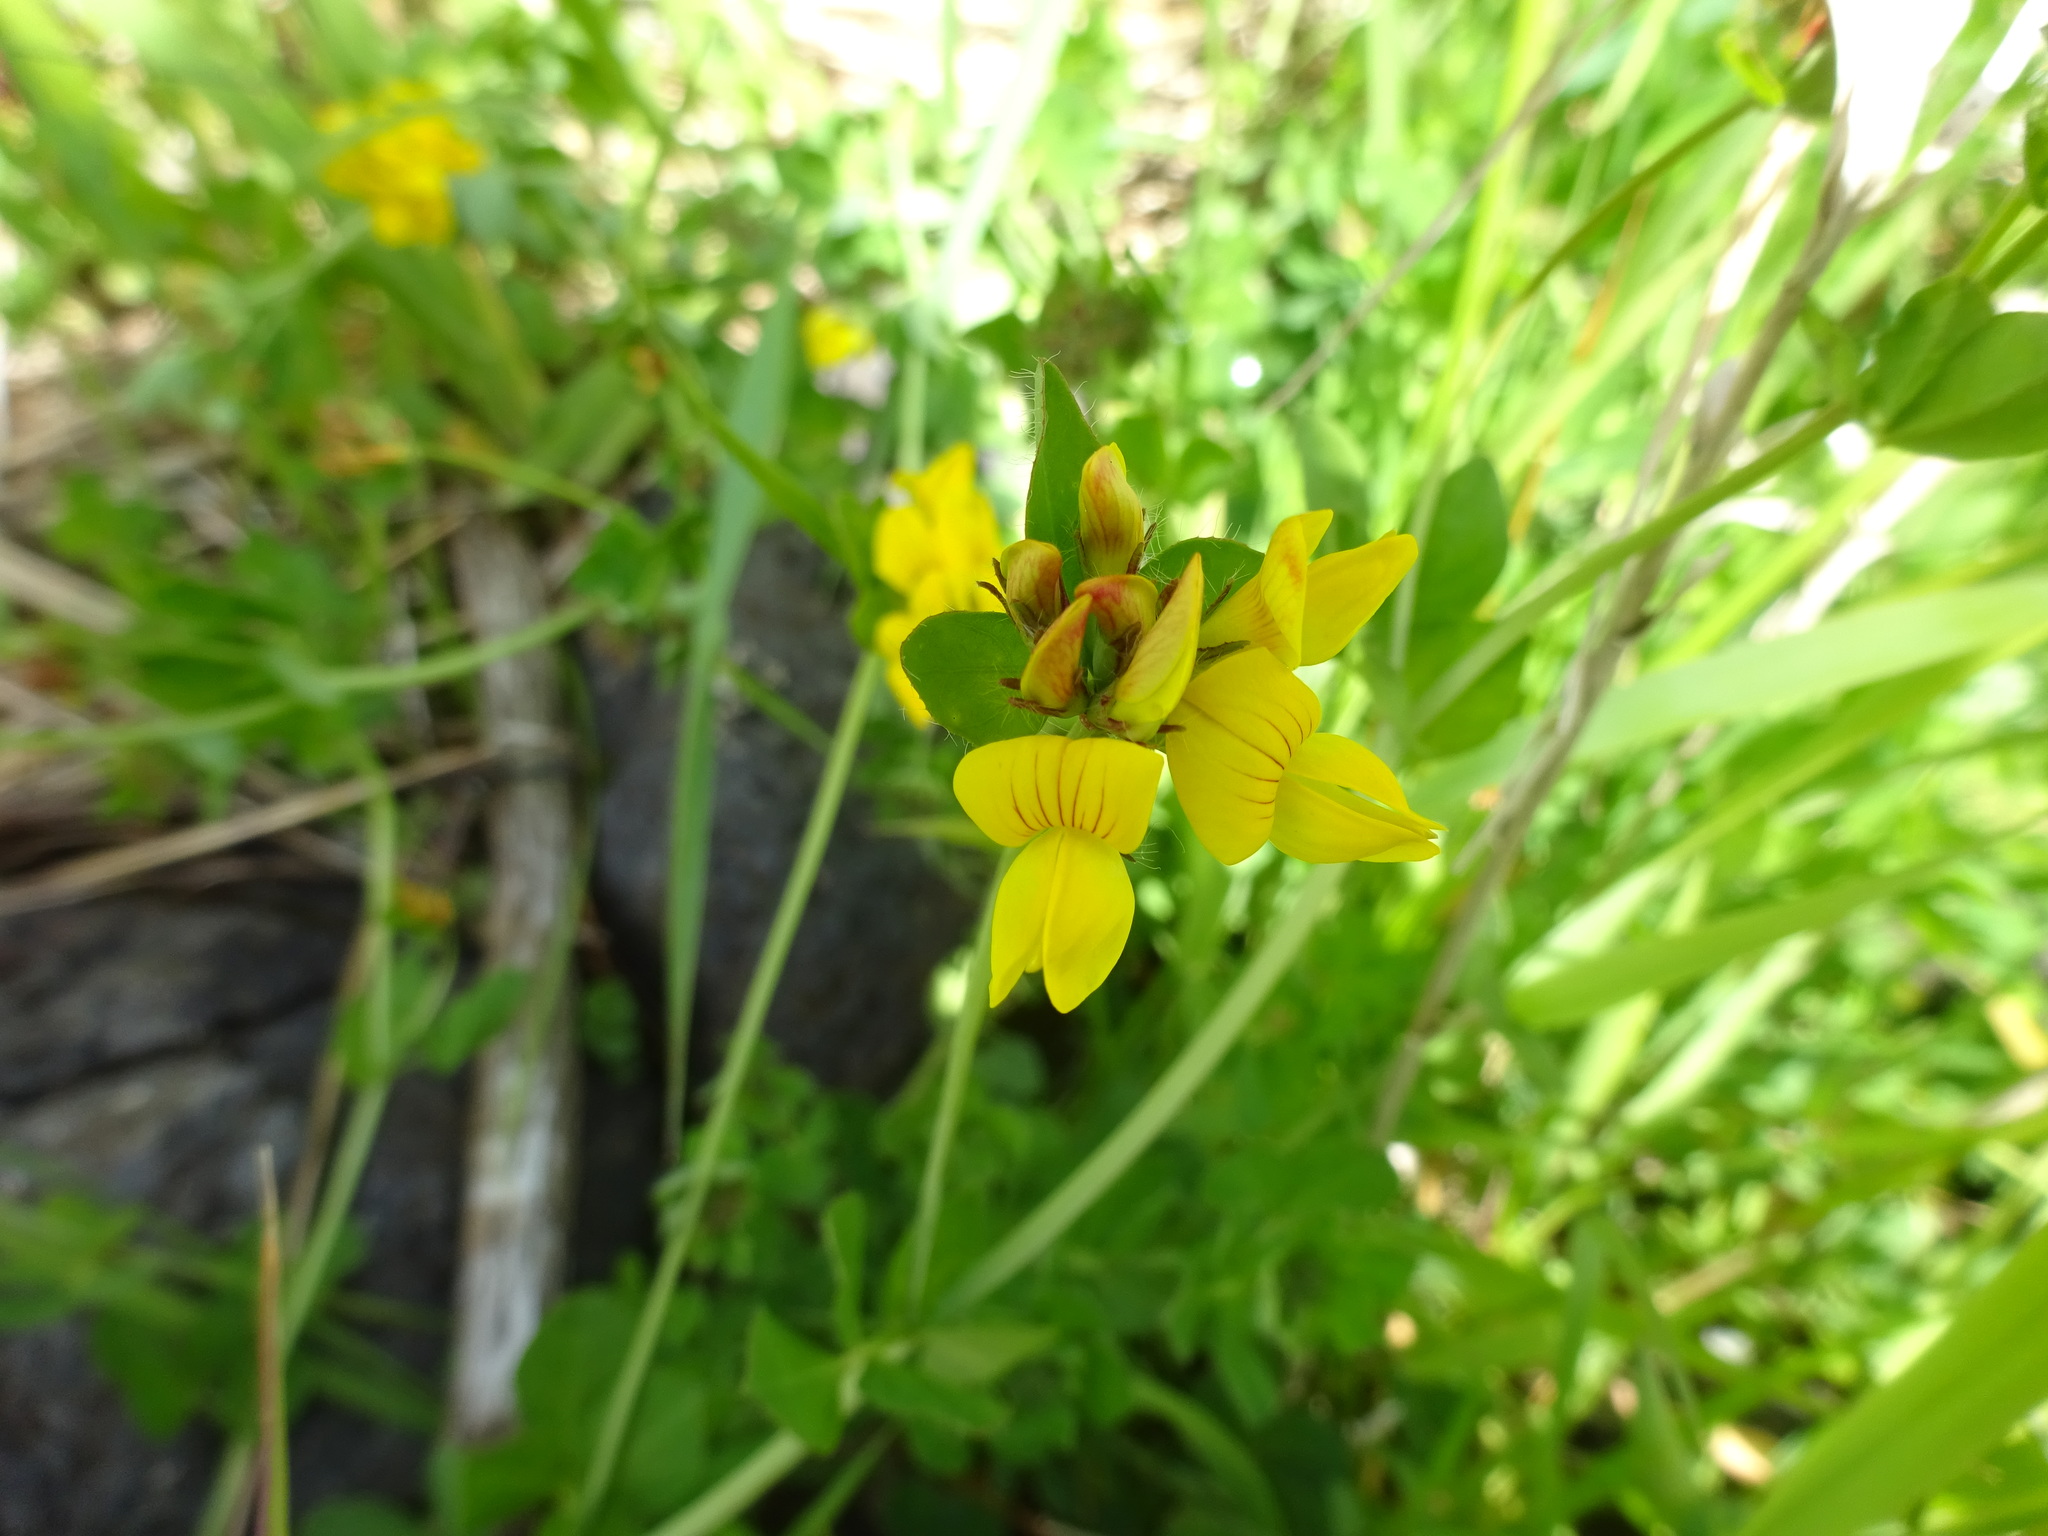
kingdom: Plantae
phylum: Tracheophyta
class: Magnoliopsida
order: Fabales
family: Fabaceae
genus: Lotus
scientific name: Lotus corniculatus
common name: Common bird's-foot-trefoil
